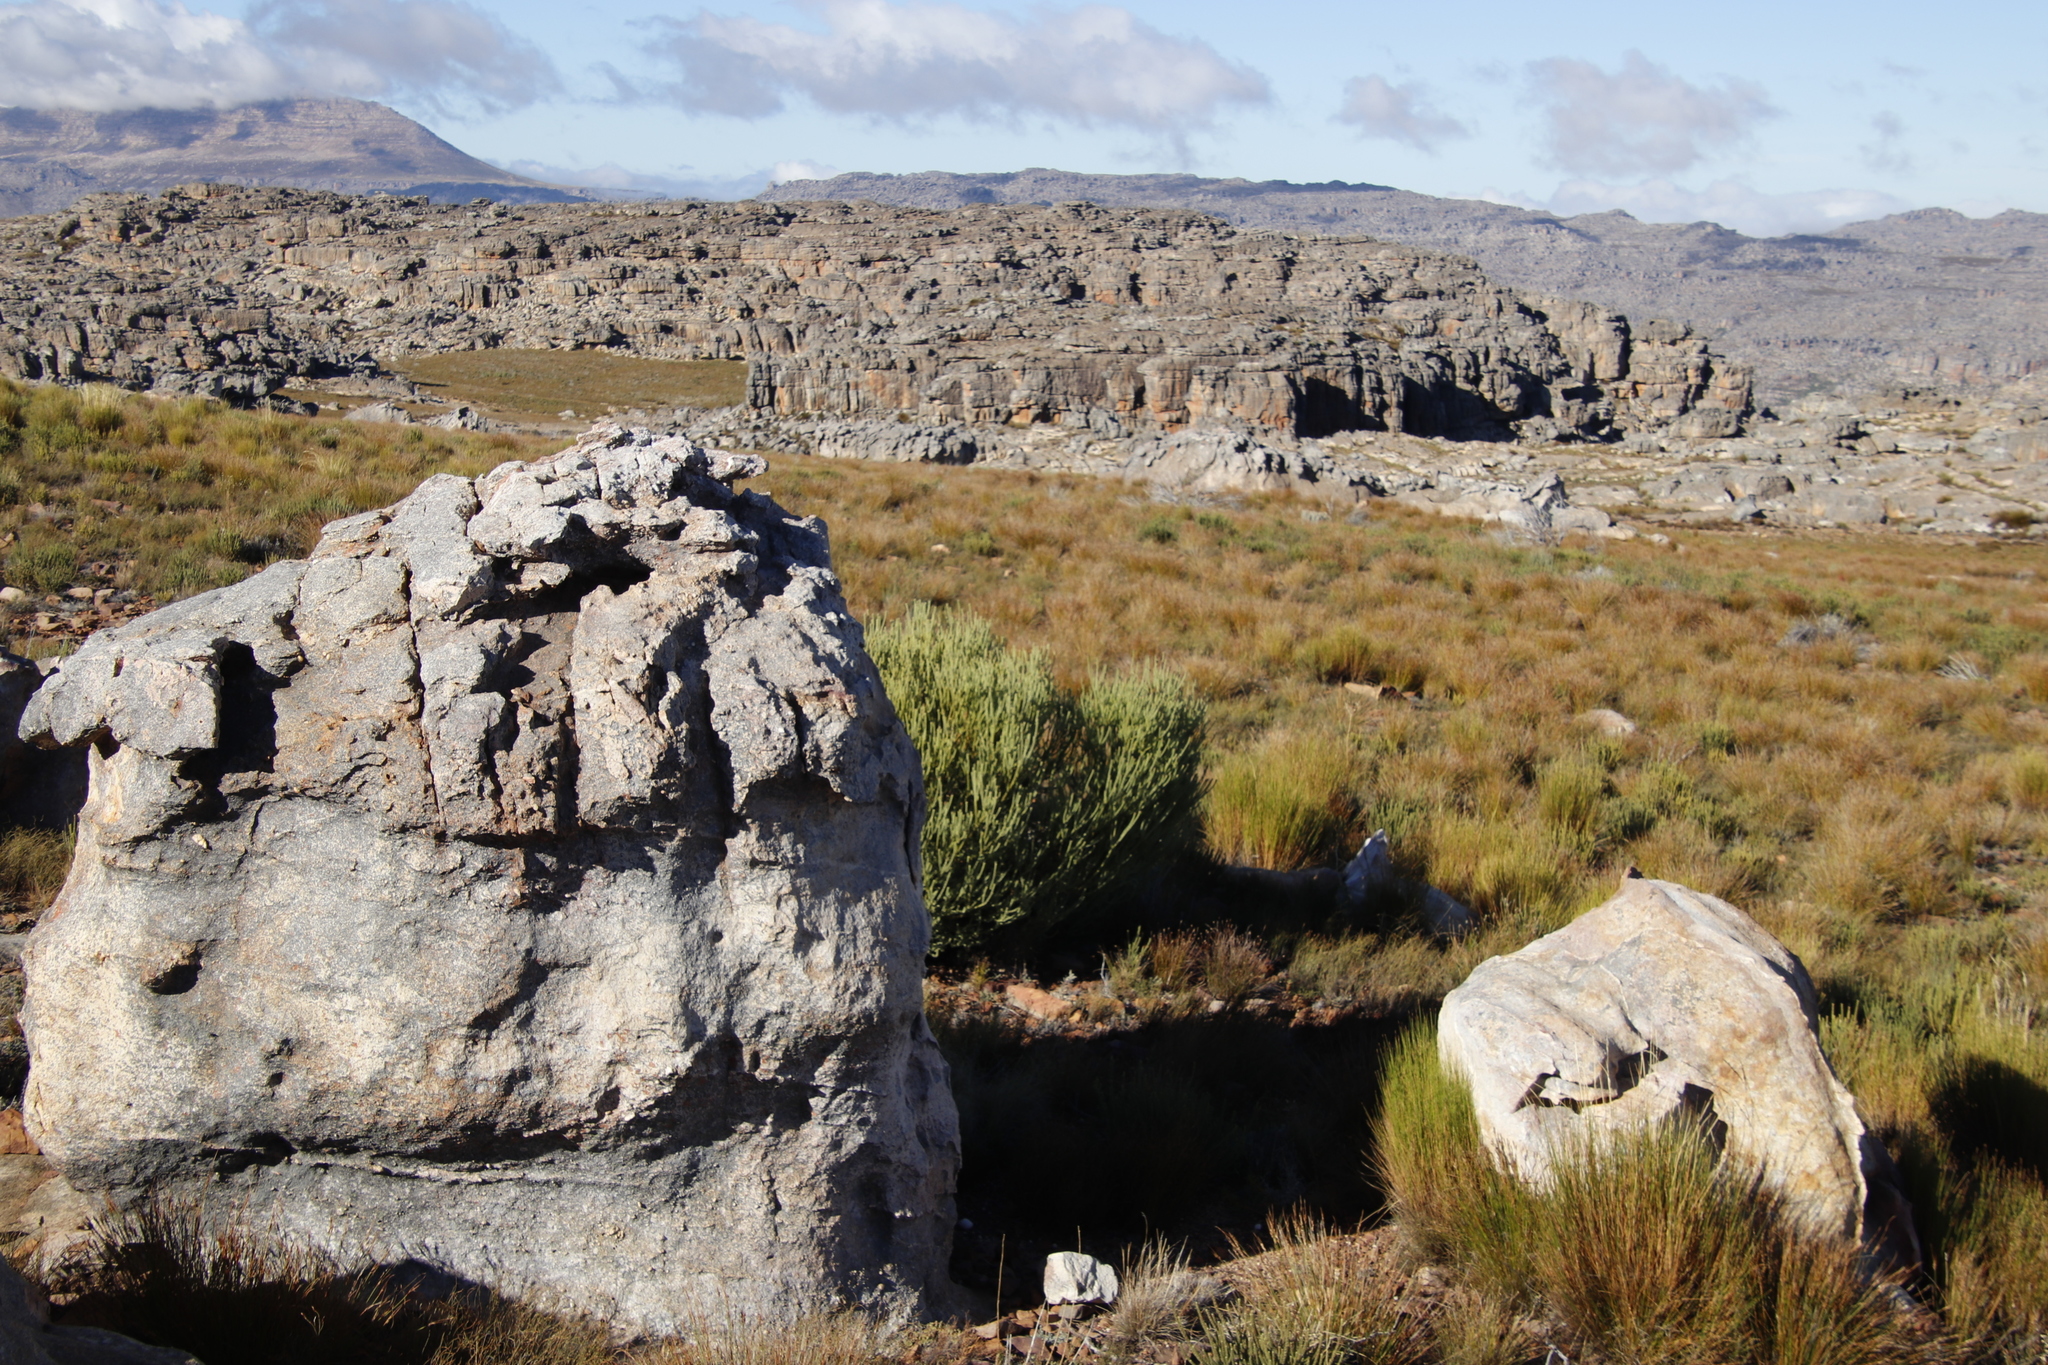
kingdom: Plantae
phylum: Tracheophyta
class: Magnoliopsida
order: Proteales
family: Proteaceae
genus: Leucadendron
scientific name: Leucadendron dubium
